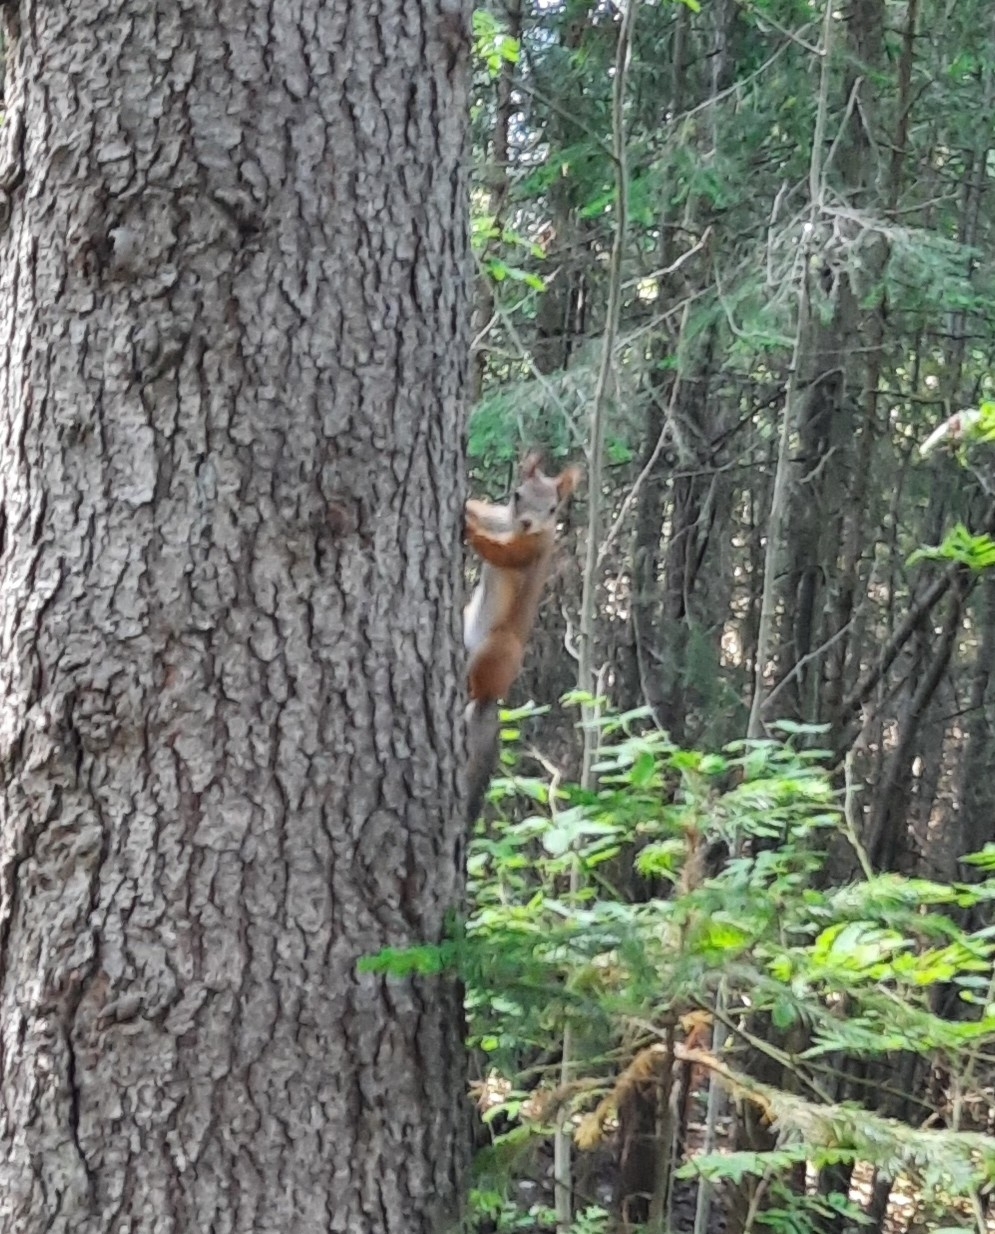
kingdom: Animalia
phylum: Chordata
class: Mammalia
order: Rodentia
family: Sciuridae
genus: Sciurus
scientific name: Sciurus vulgaris
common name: Eurasian red squirrel
